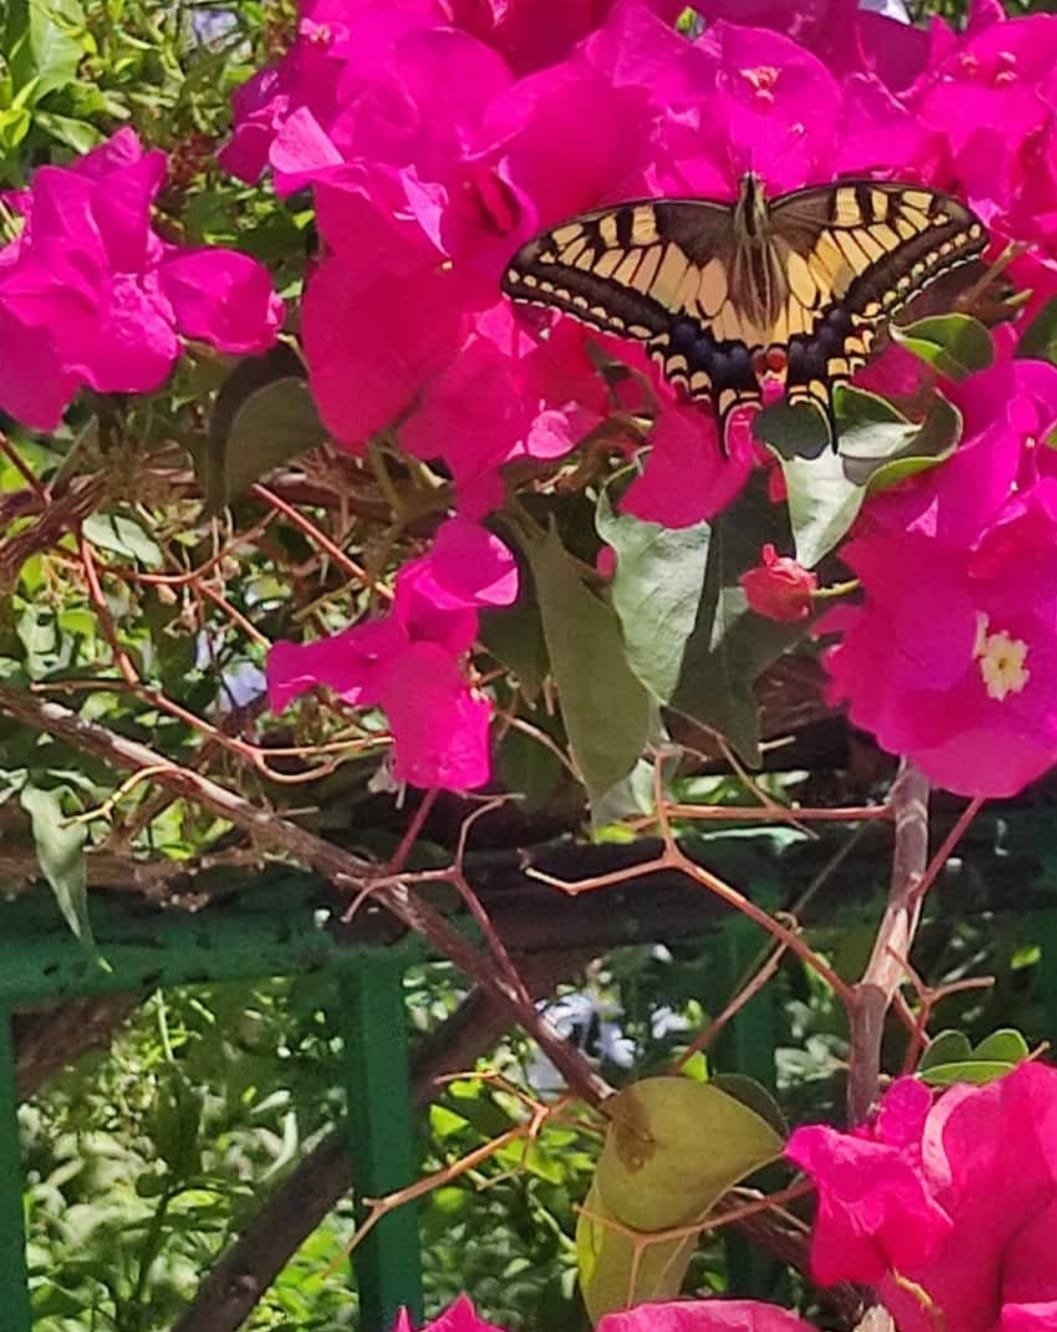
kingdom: Animalia
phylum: Arthropoda
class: Insecta
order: Lepidoptera
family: Papilionidae
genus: Papilio
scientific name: Papilio machaon
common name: Swallowtail
